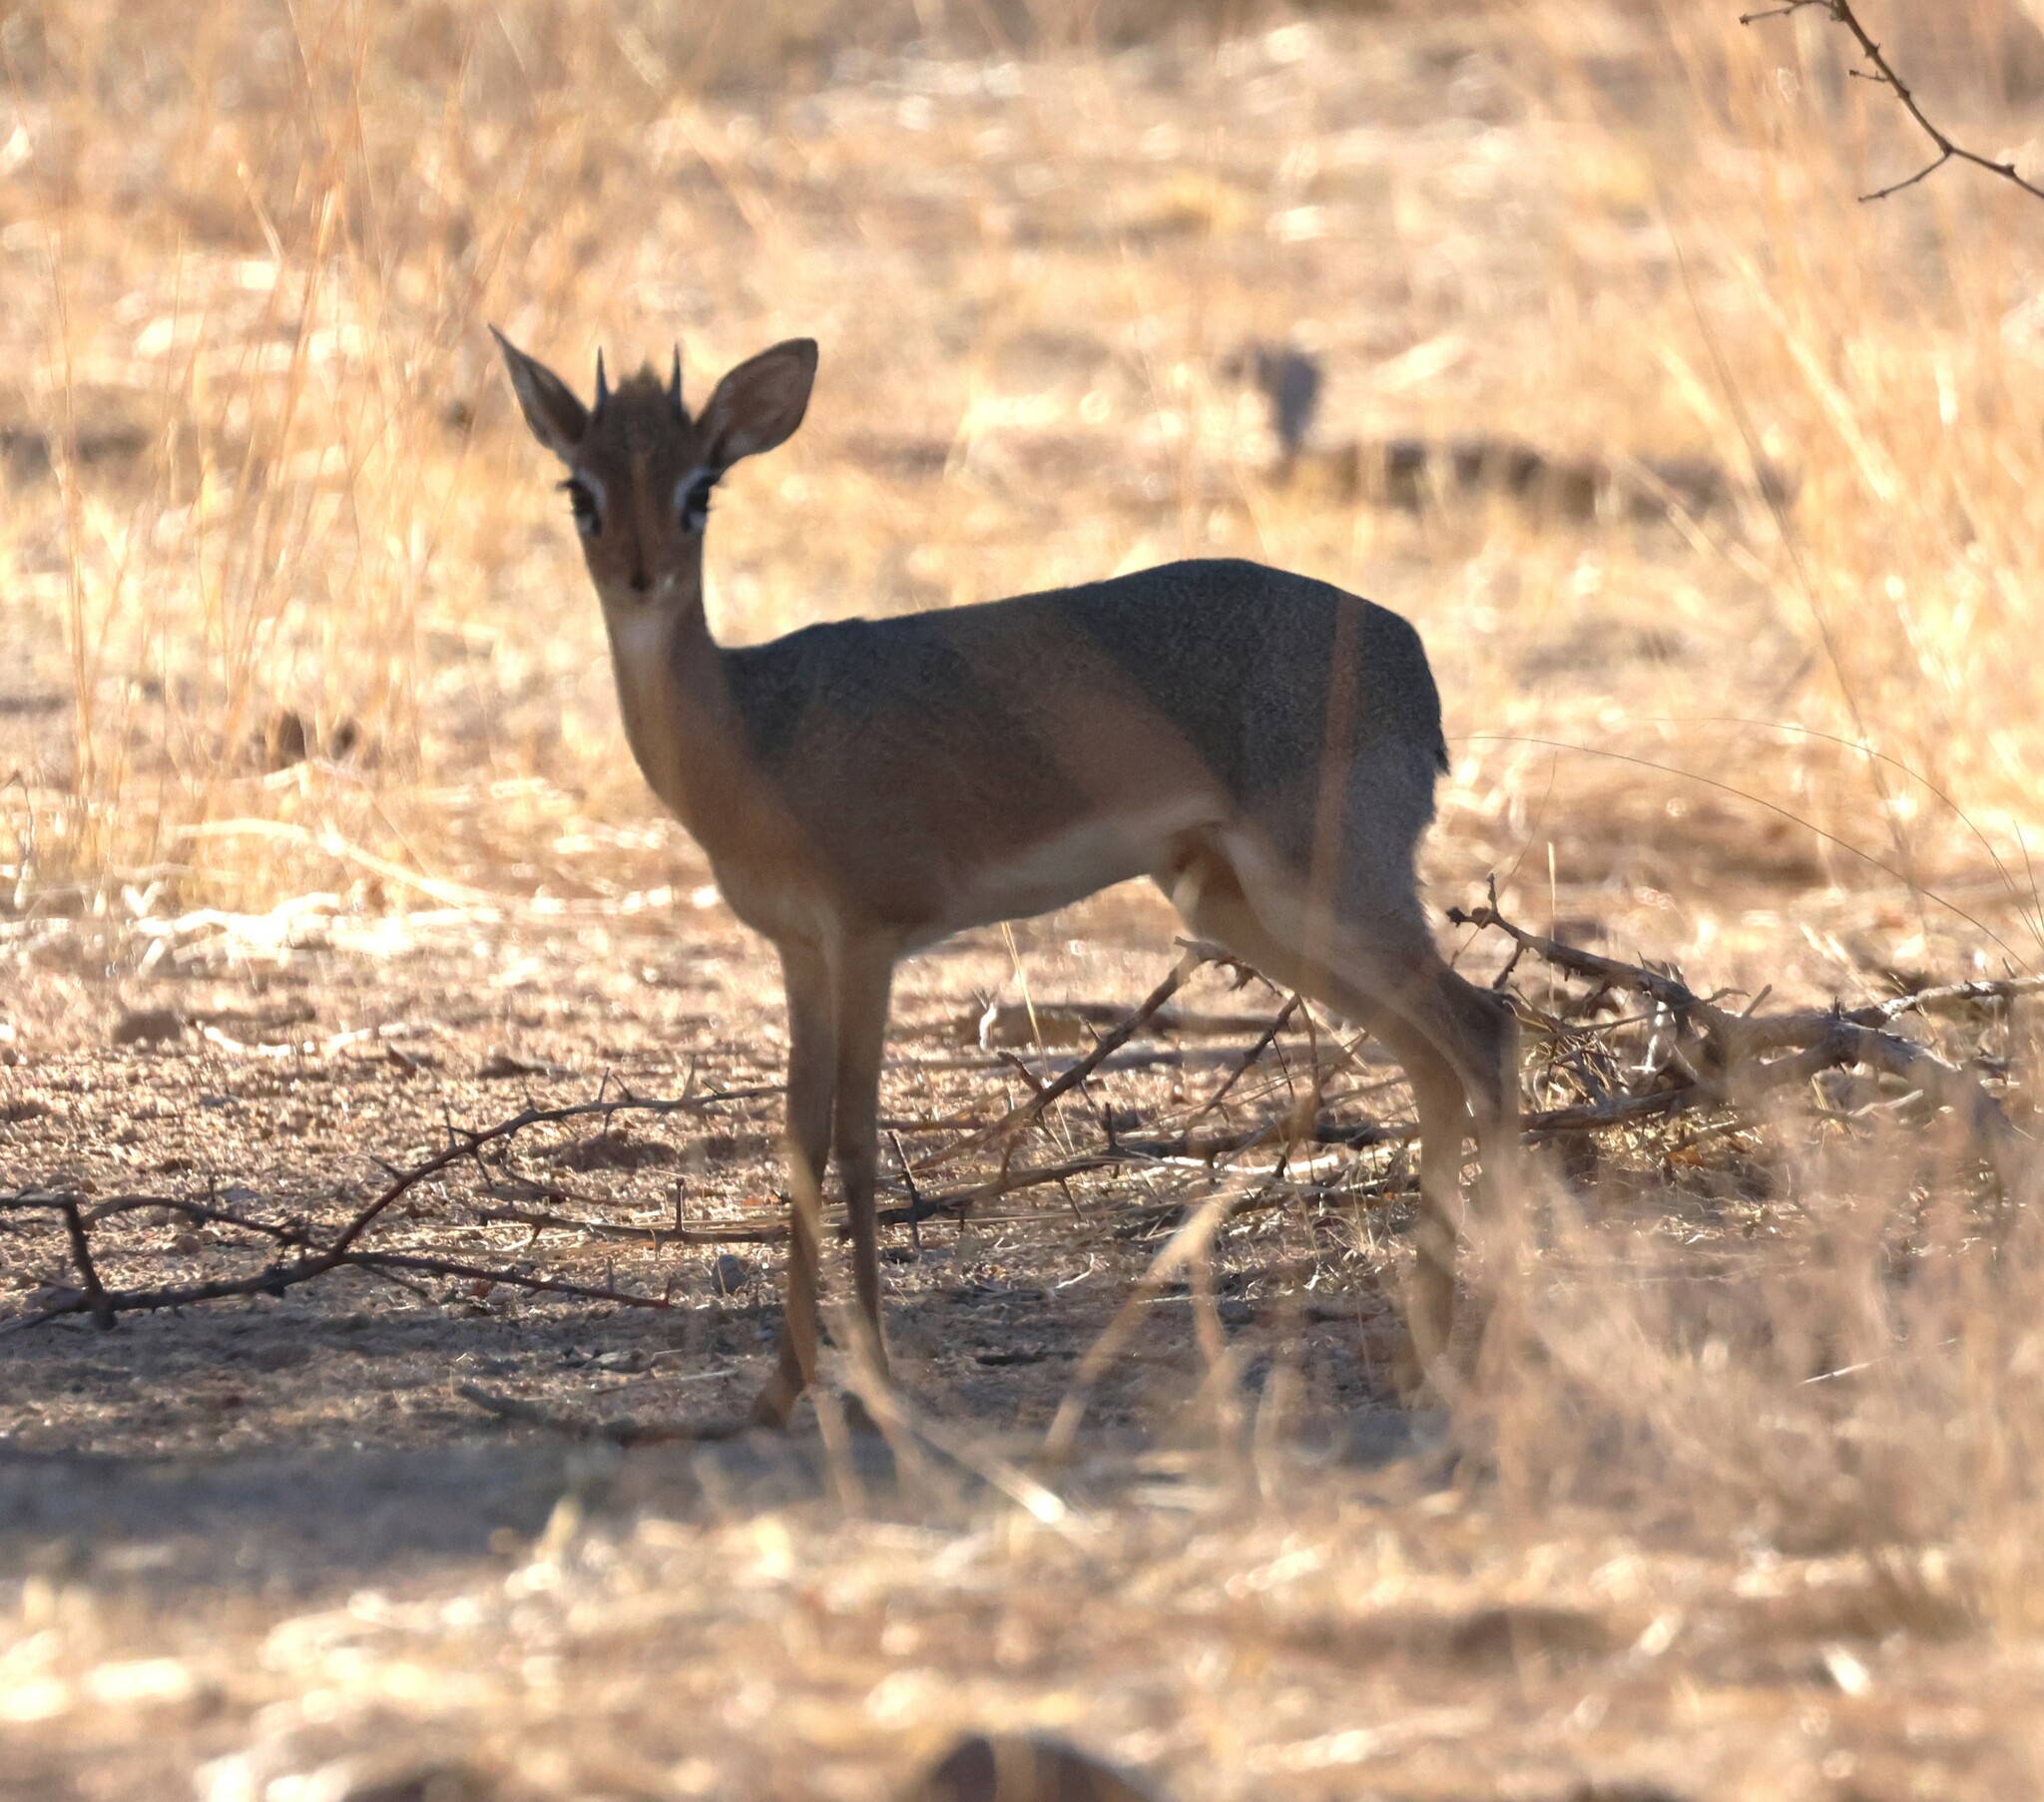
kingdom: Animalia
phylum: Chordata
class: Mammalia
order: Artiodactyla
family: Bovidae
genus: Madoqua
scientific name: Madoqua kirkii
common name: Kirk's dik-dik
